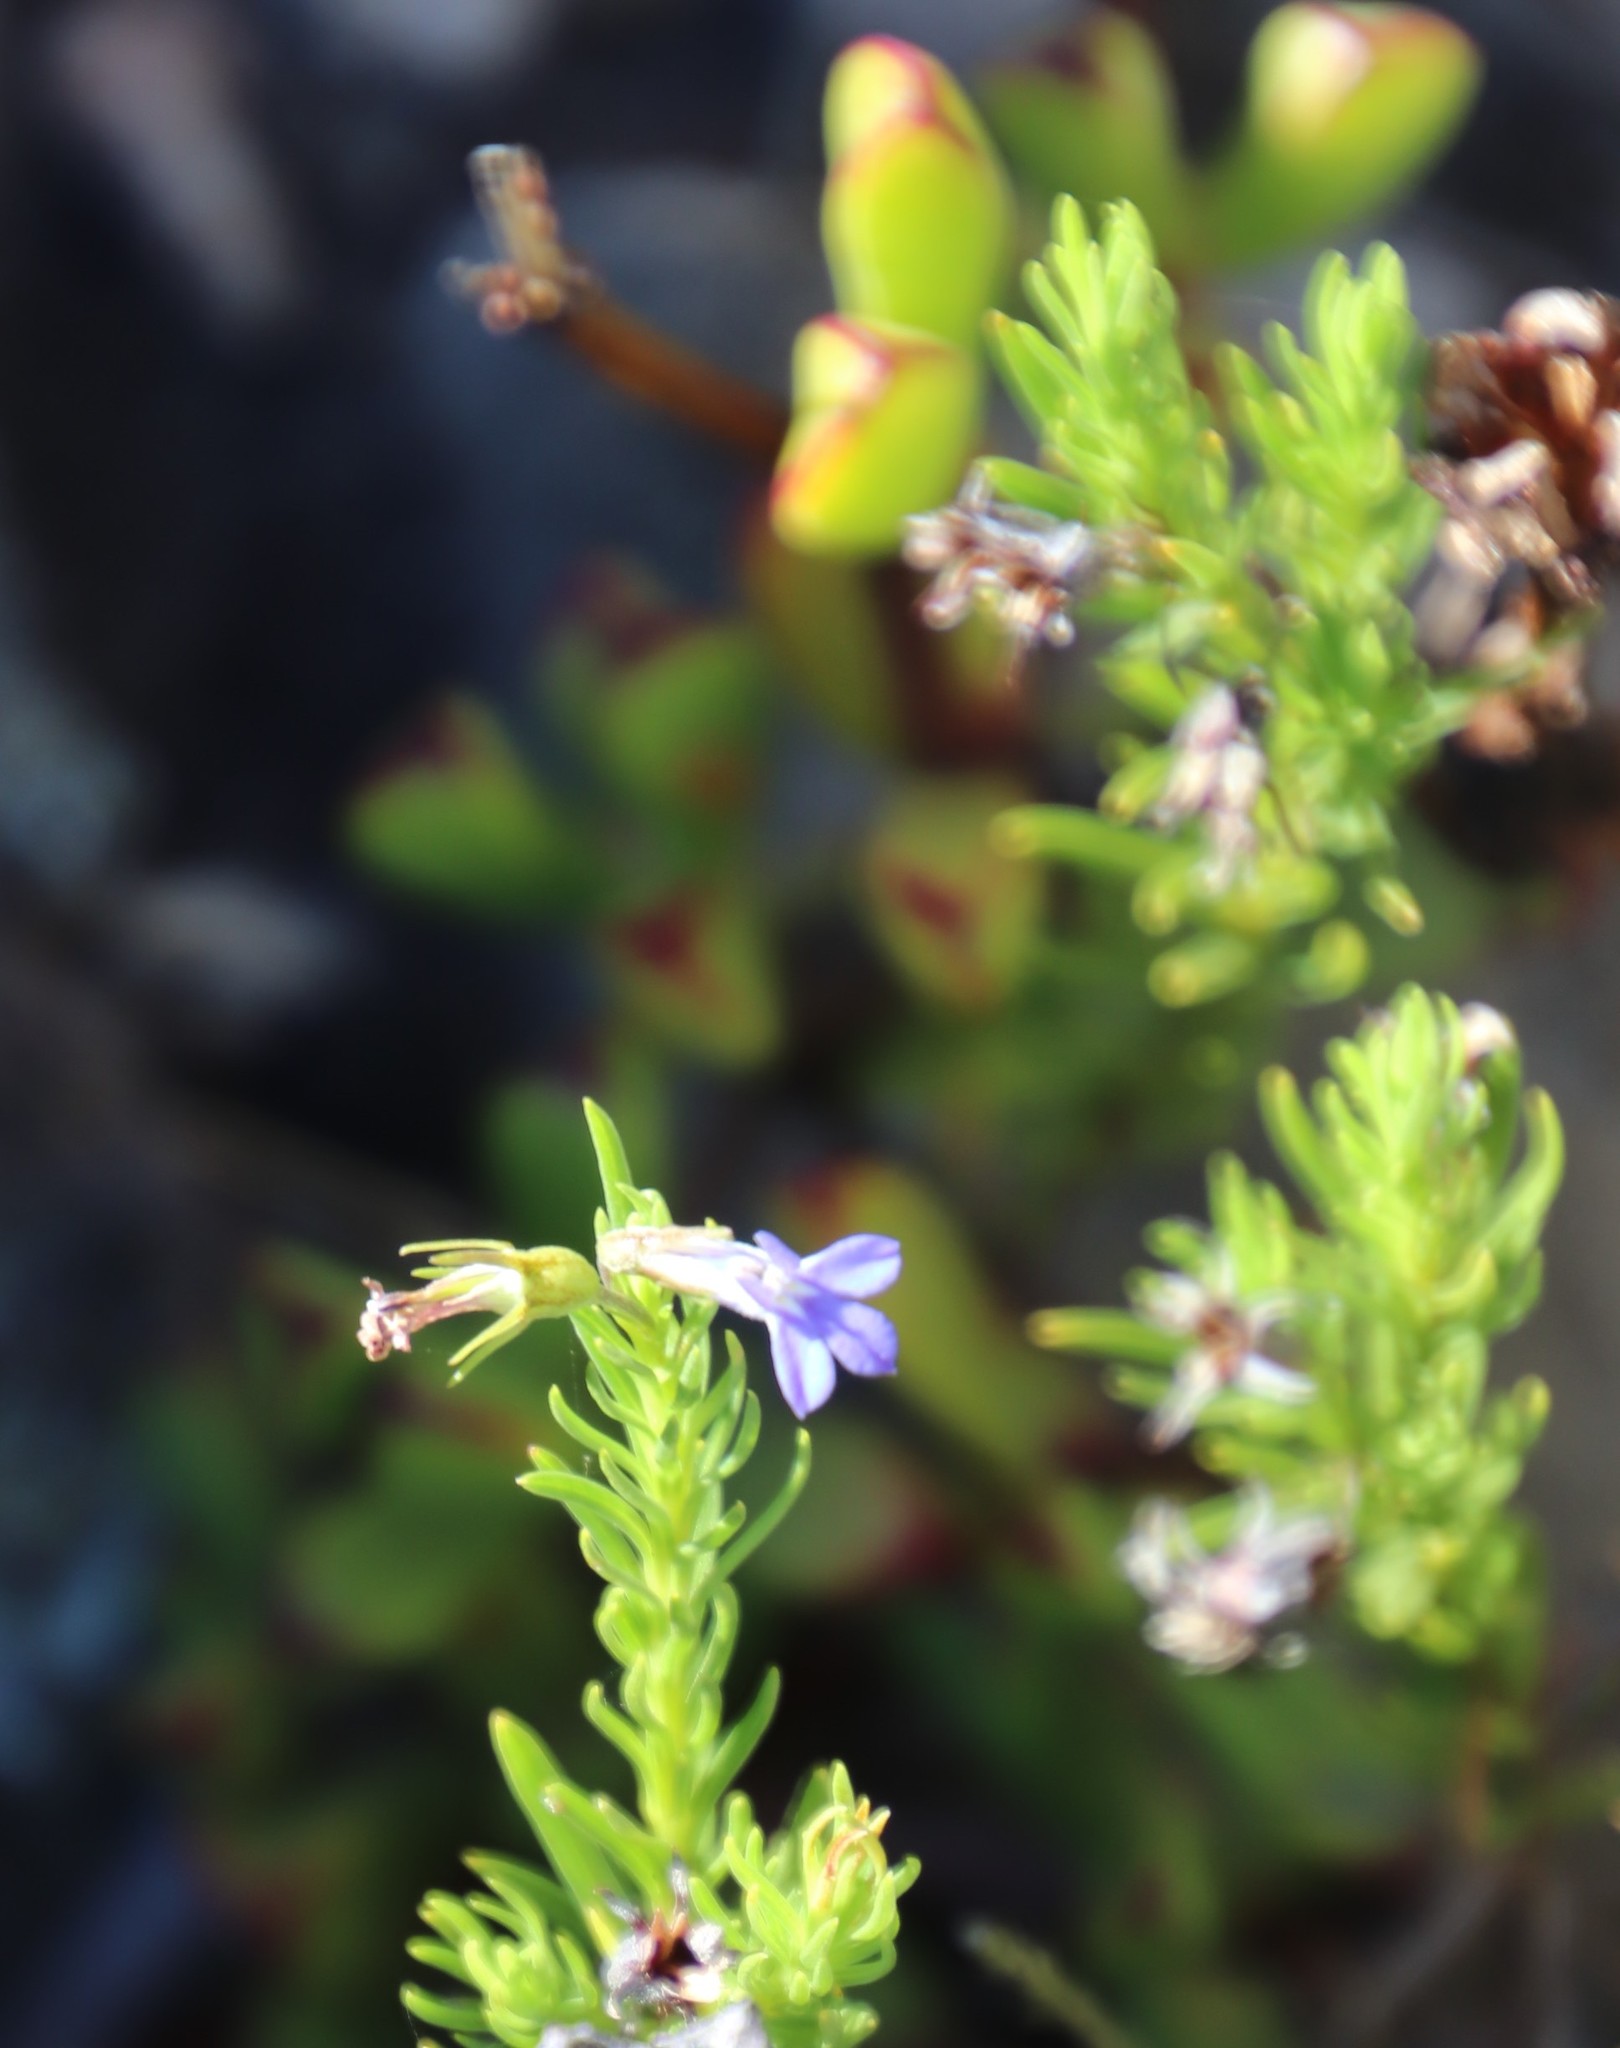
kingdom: Plantae
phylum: Tracheophyta
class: Magnoliopsida
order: Asterales
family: Campanulaceae
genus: Lobelia
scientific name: Lobelia pinifolia
